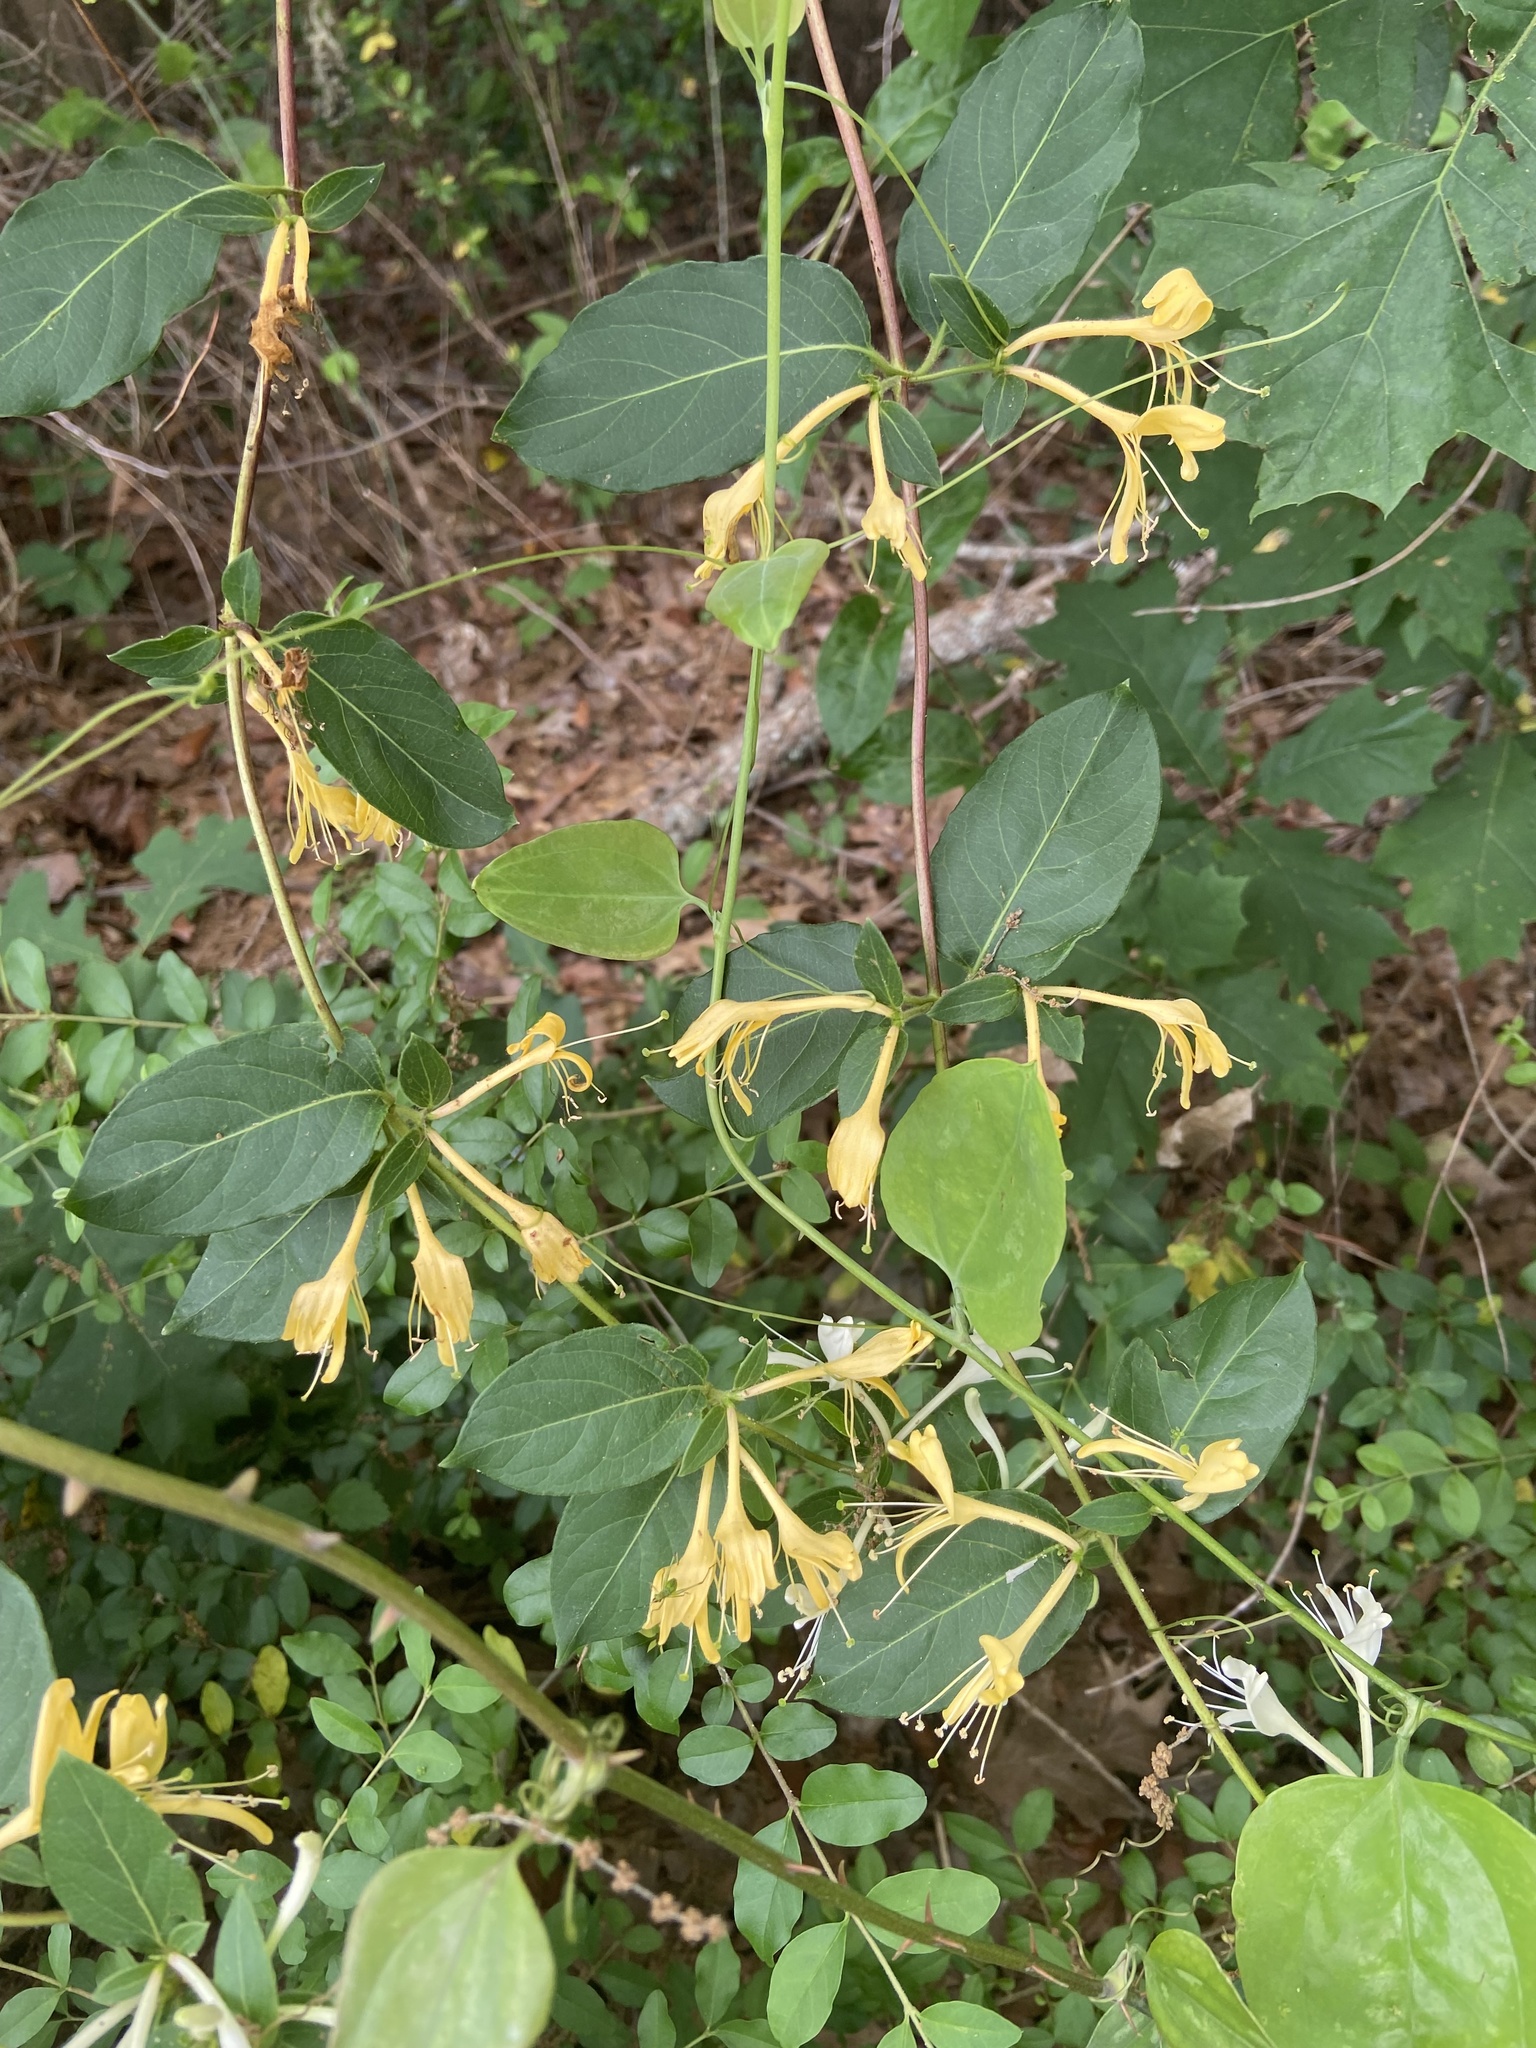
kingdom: Plantae
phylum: Tracheophyta
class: Magnoliopsida
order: Dipsacales
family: Caprifoliaceae
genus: Lonicera
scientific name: Lonicera japonica
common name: Japanese honeysuckle
